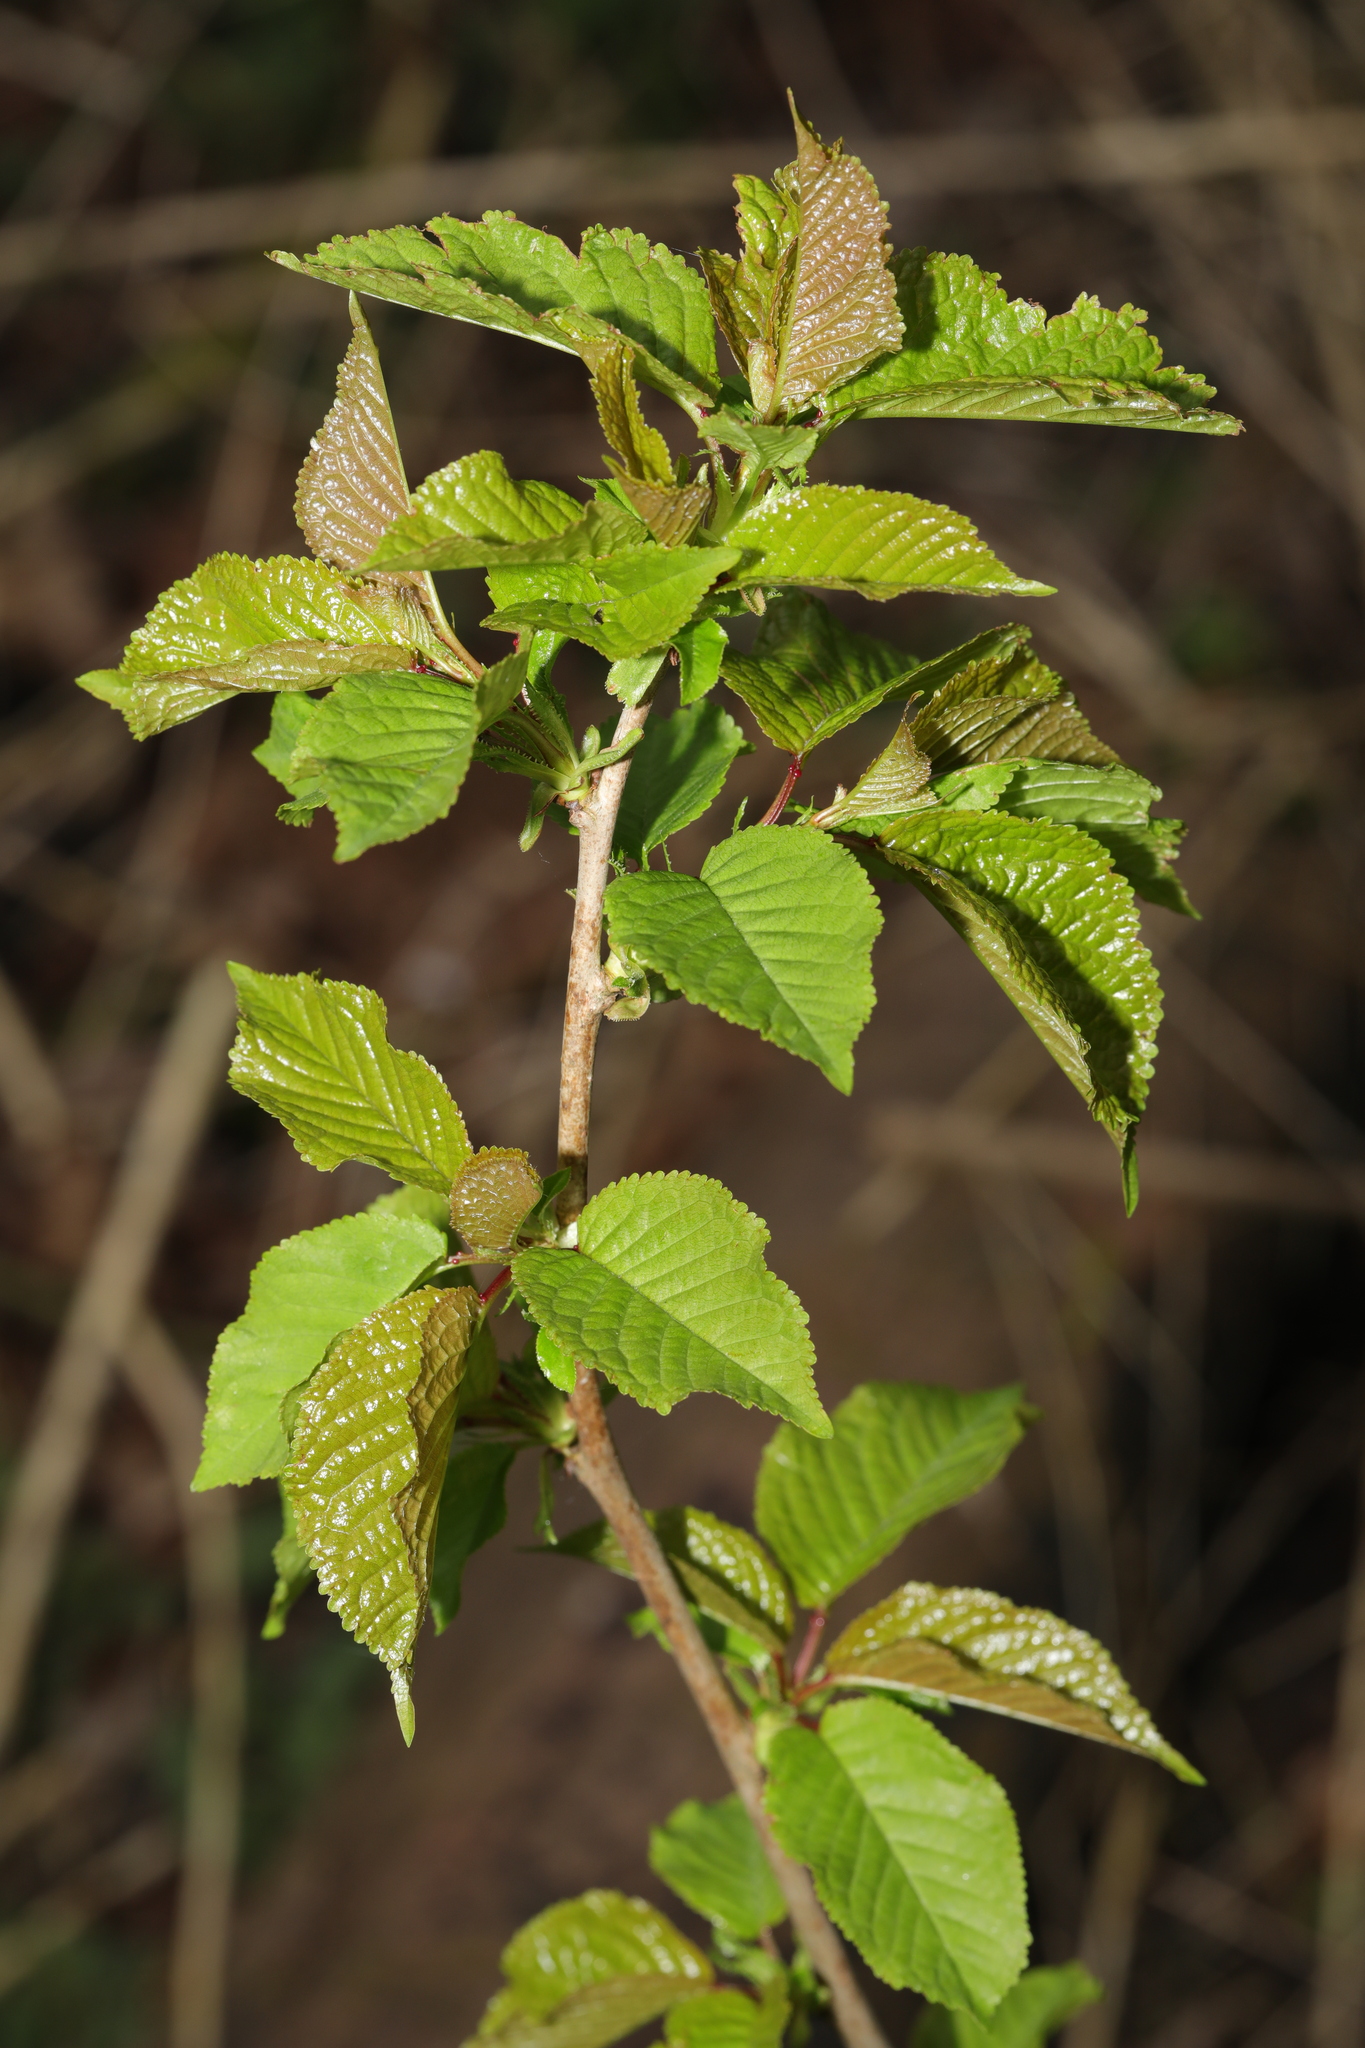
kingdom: Plantae
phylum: Tracheophyta
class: Magnoliopsida
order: Rosales
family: Rosaceae
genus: Prunus
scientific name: Prunus avium
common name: Sweet cherry
